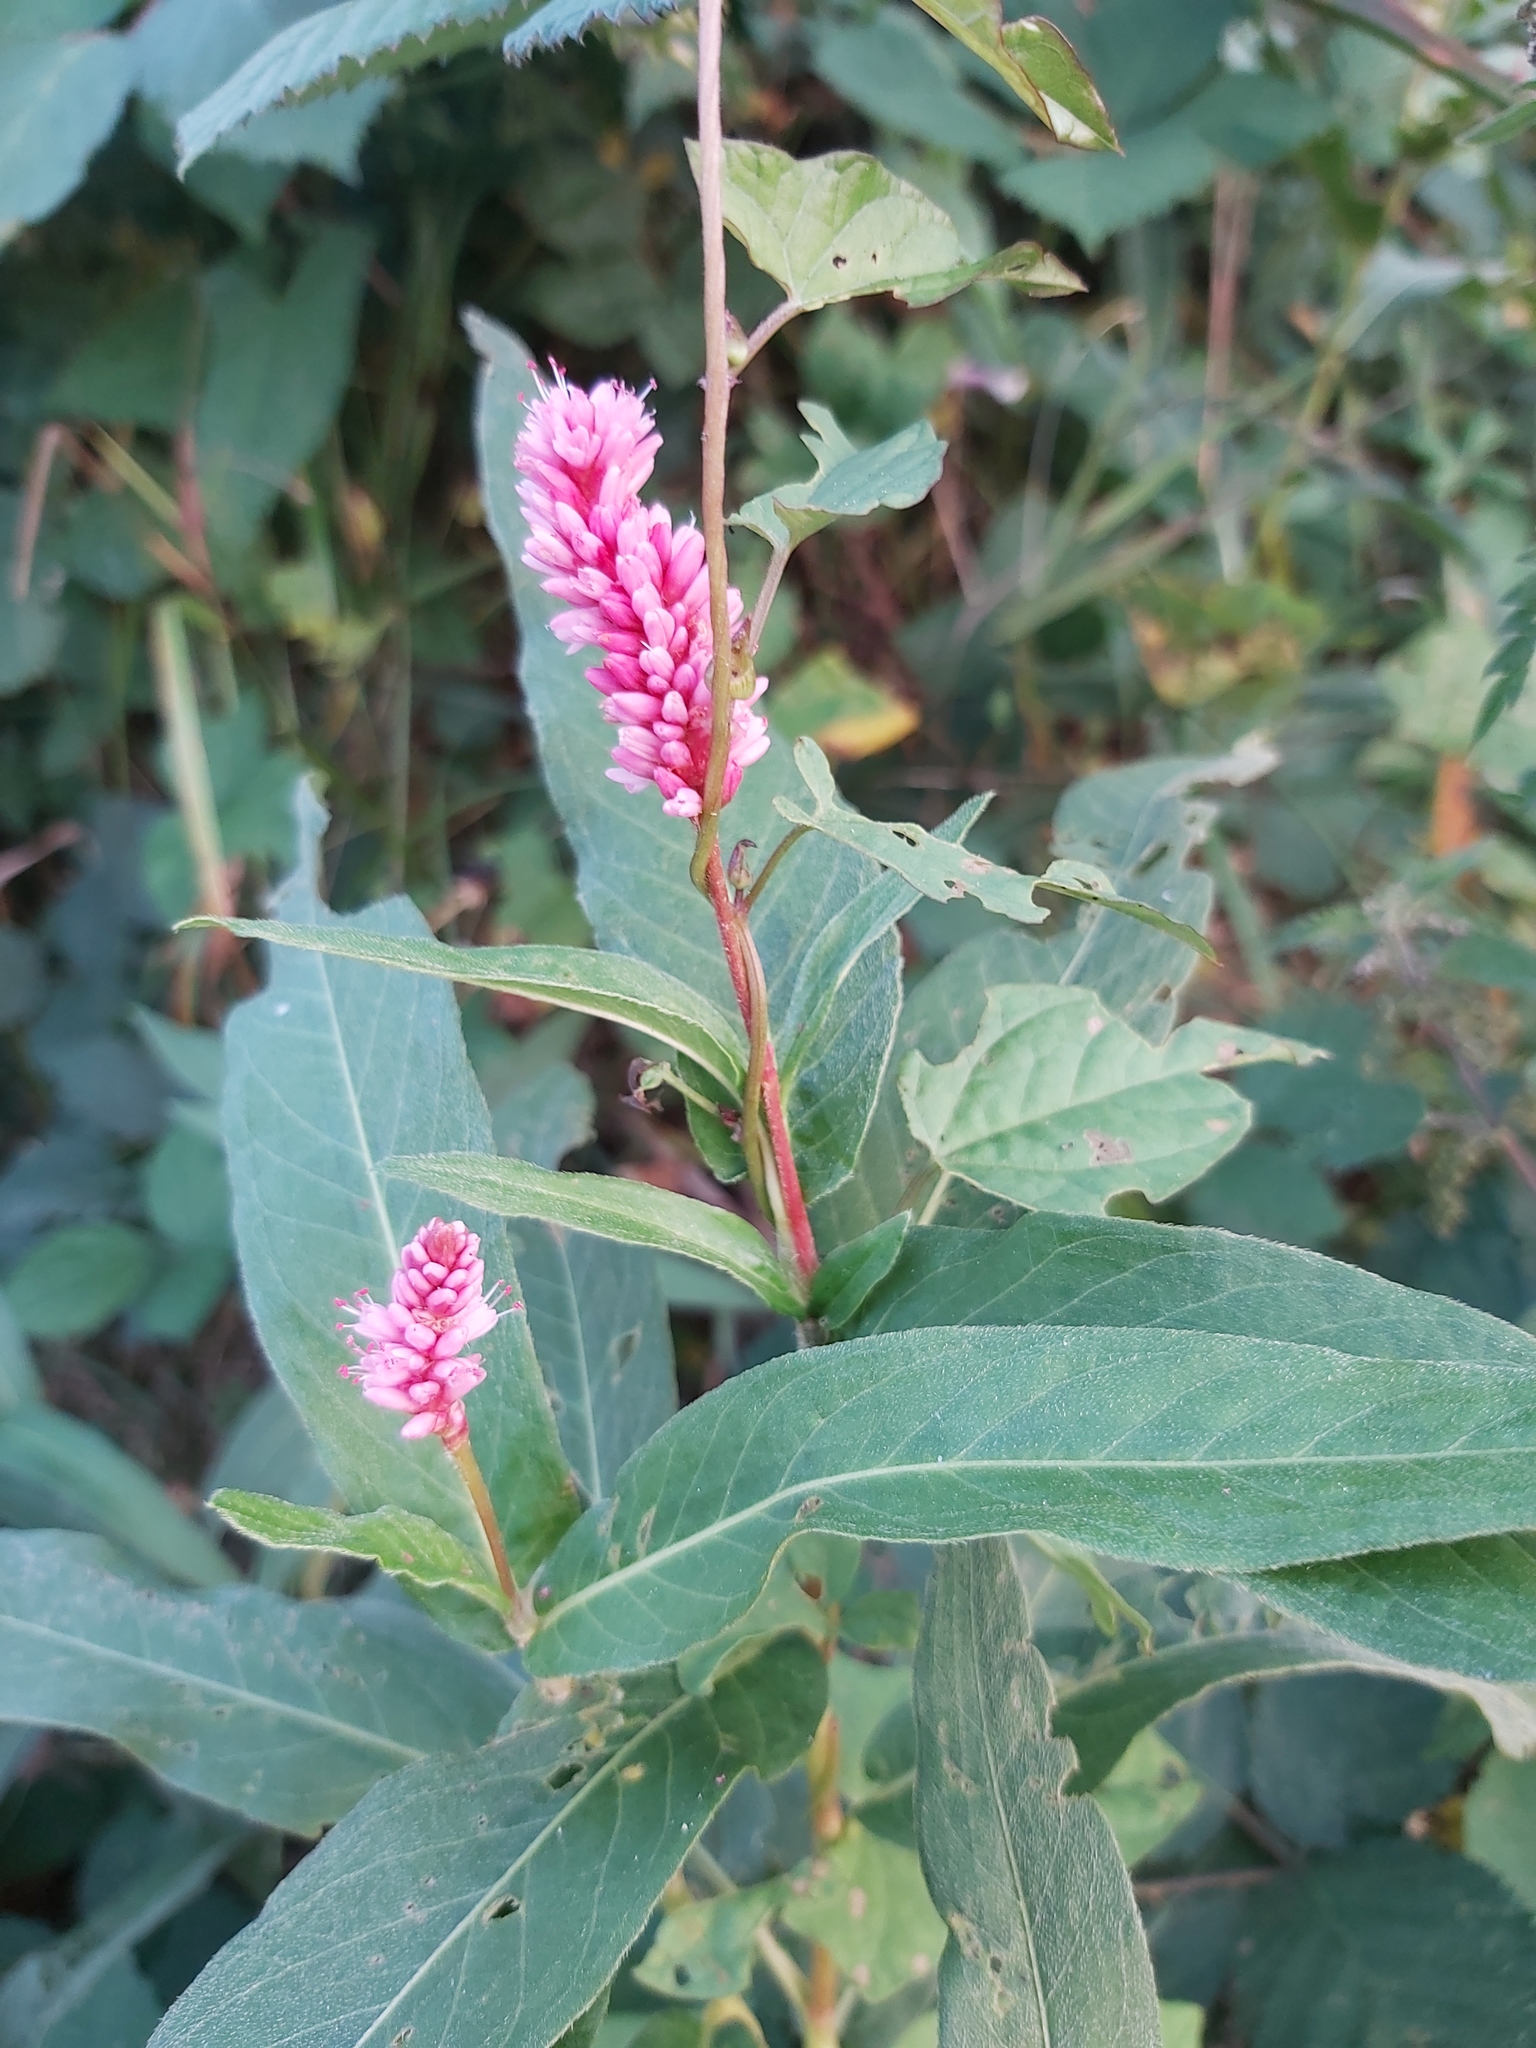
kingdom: Plantae
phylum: Tracheophyta
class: Magnoliopsida
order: Caryophyllales
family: Polygonaceae
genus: Persicaria
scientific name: Persicaria amphibia
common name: Amphibious bistort
